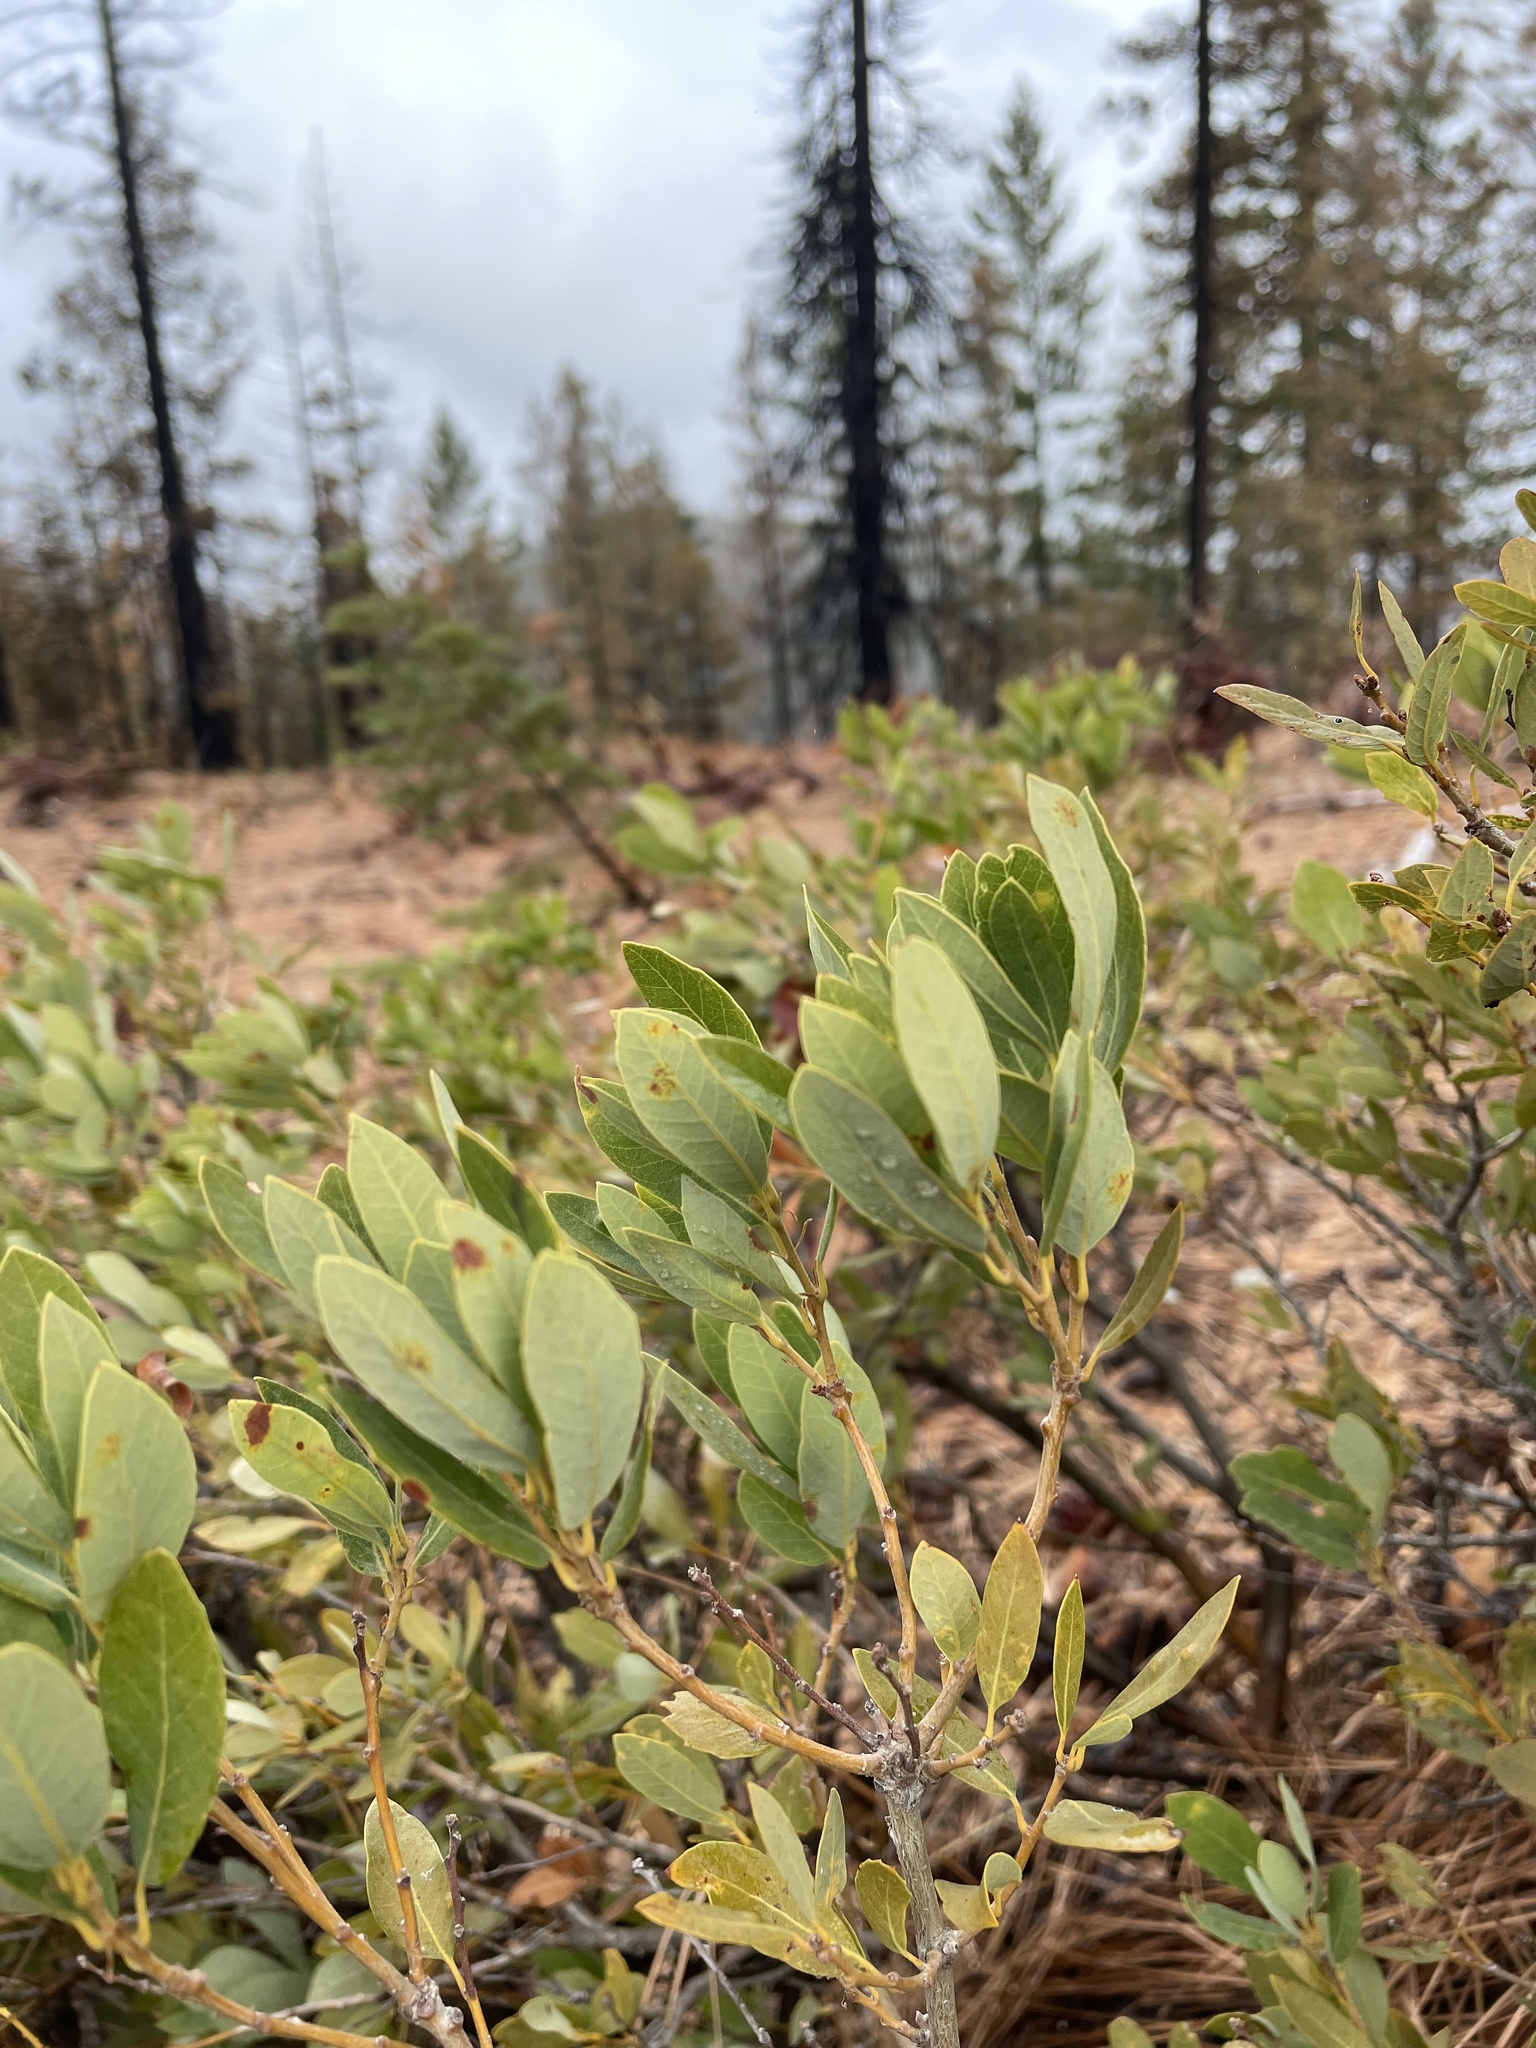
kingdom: Plantae
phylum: Tracheophyta
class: Magnoliopsida
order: Fagales
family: Fagaceae
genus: Quercus
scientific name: Quercus vacciniifolia
